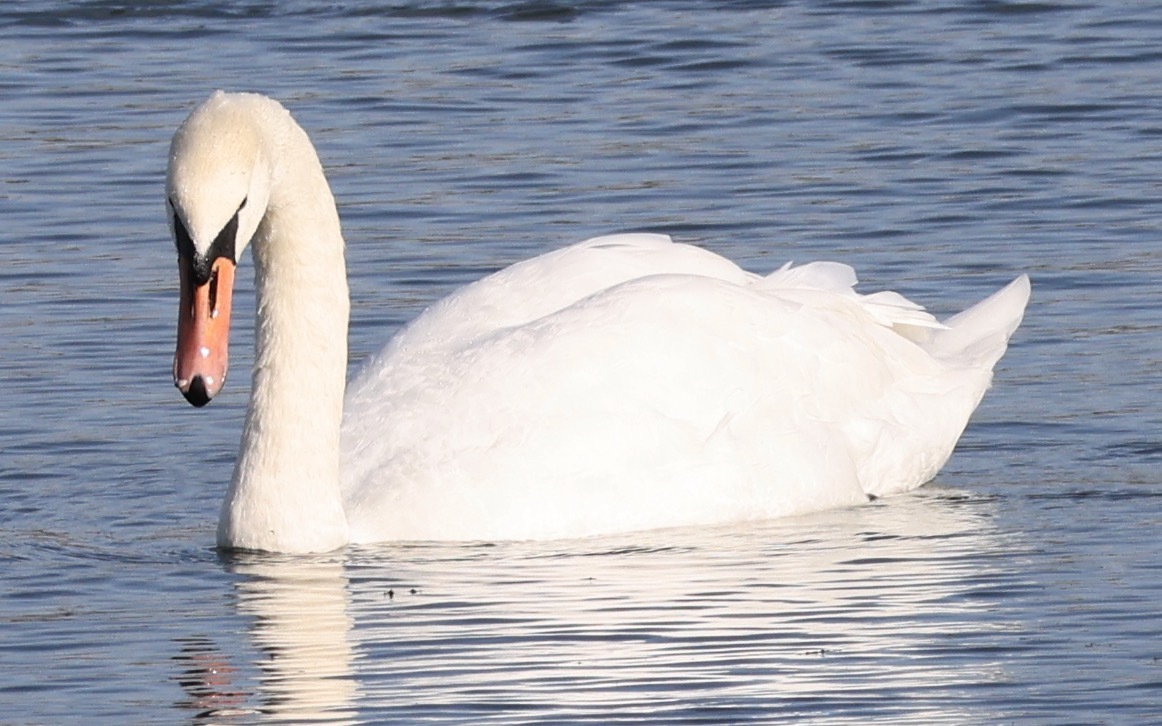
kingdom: Animalia
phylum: Chordata
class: Aves
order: Anseriformes
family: Anatidae
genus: Cygnus
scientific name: Cygnus olor
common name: Mute swan
